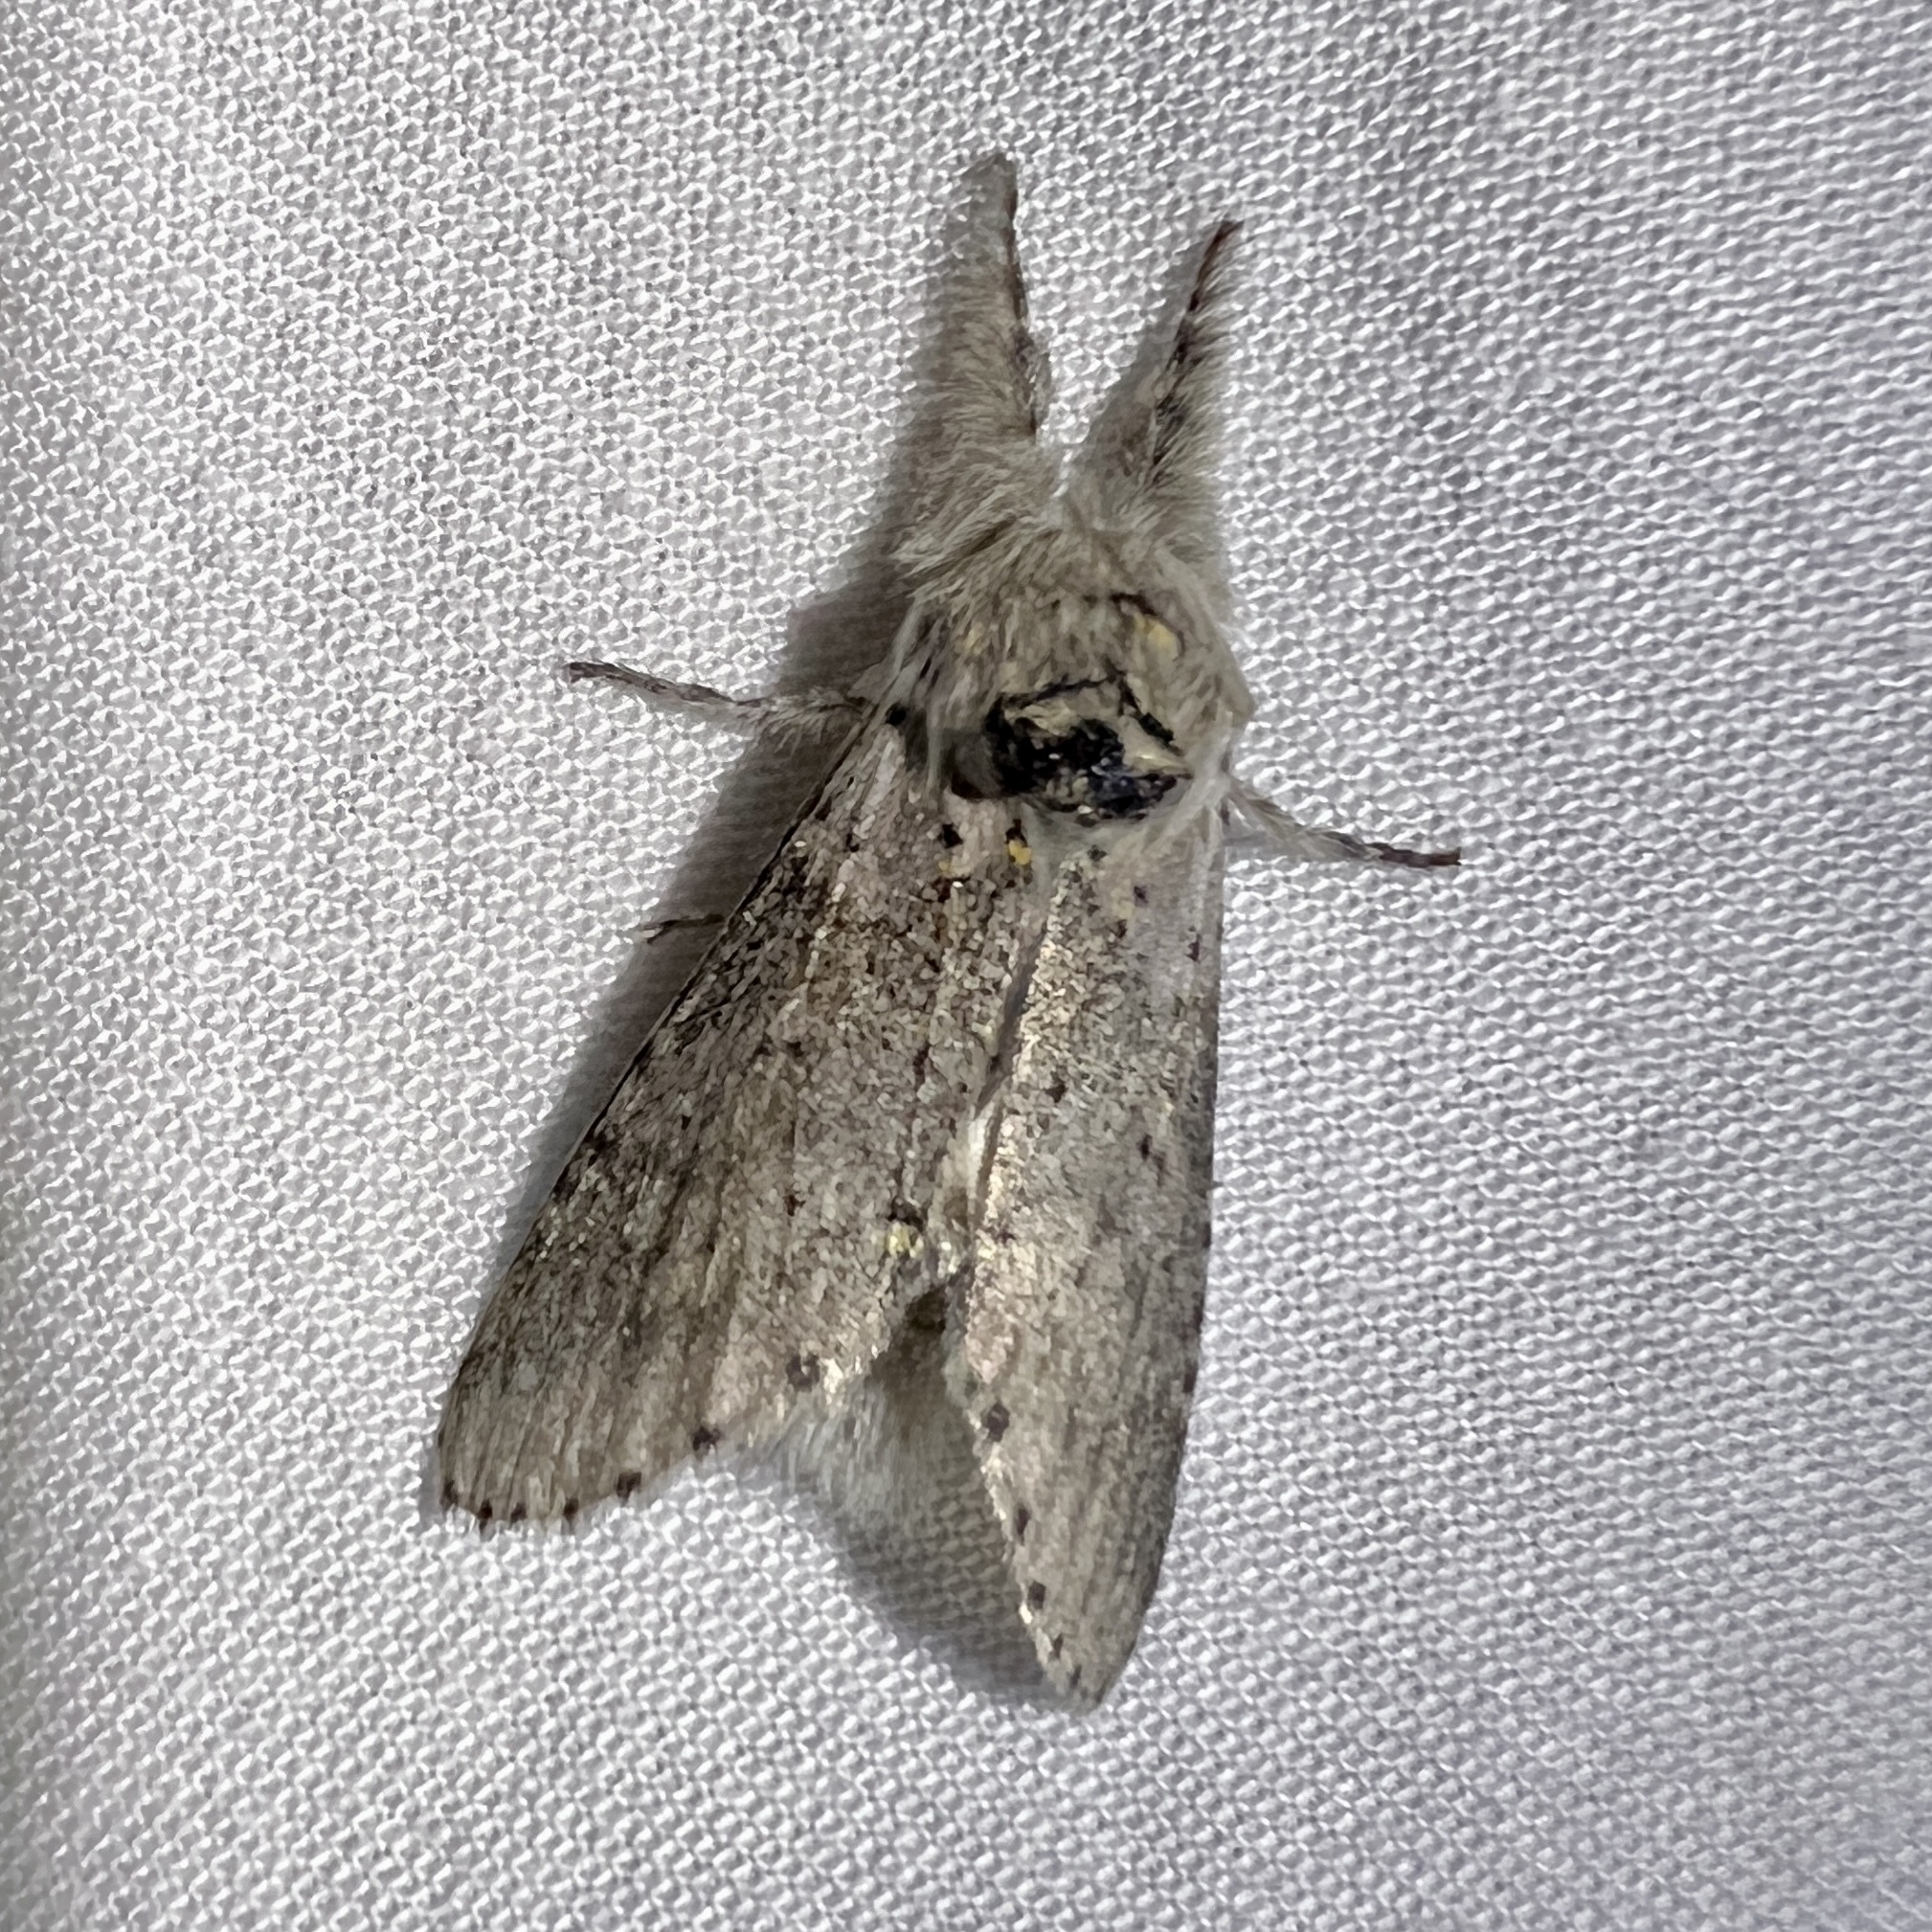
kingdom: Animalia
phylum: Arthropoda
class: Insecta
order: Lepidoptera
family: Notodontidae
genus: Furcula
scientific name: Furcula cinerea
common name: Gray furcula
